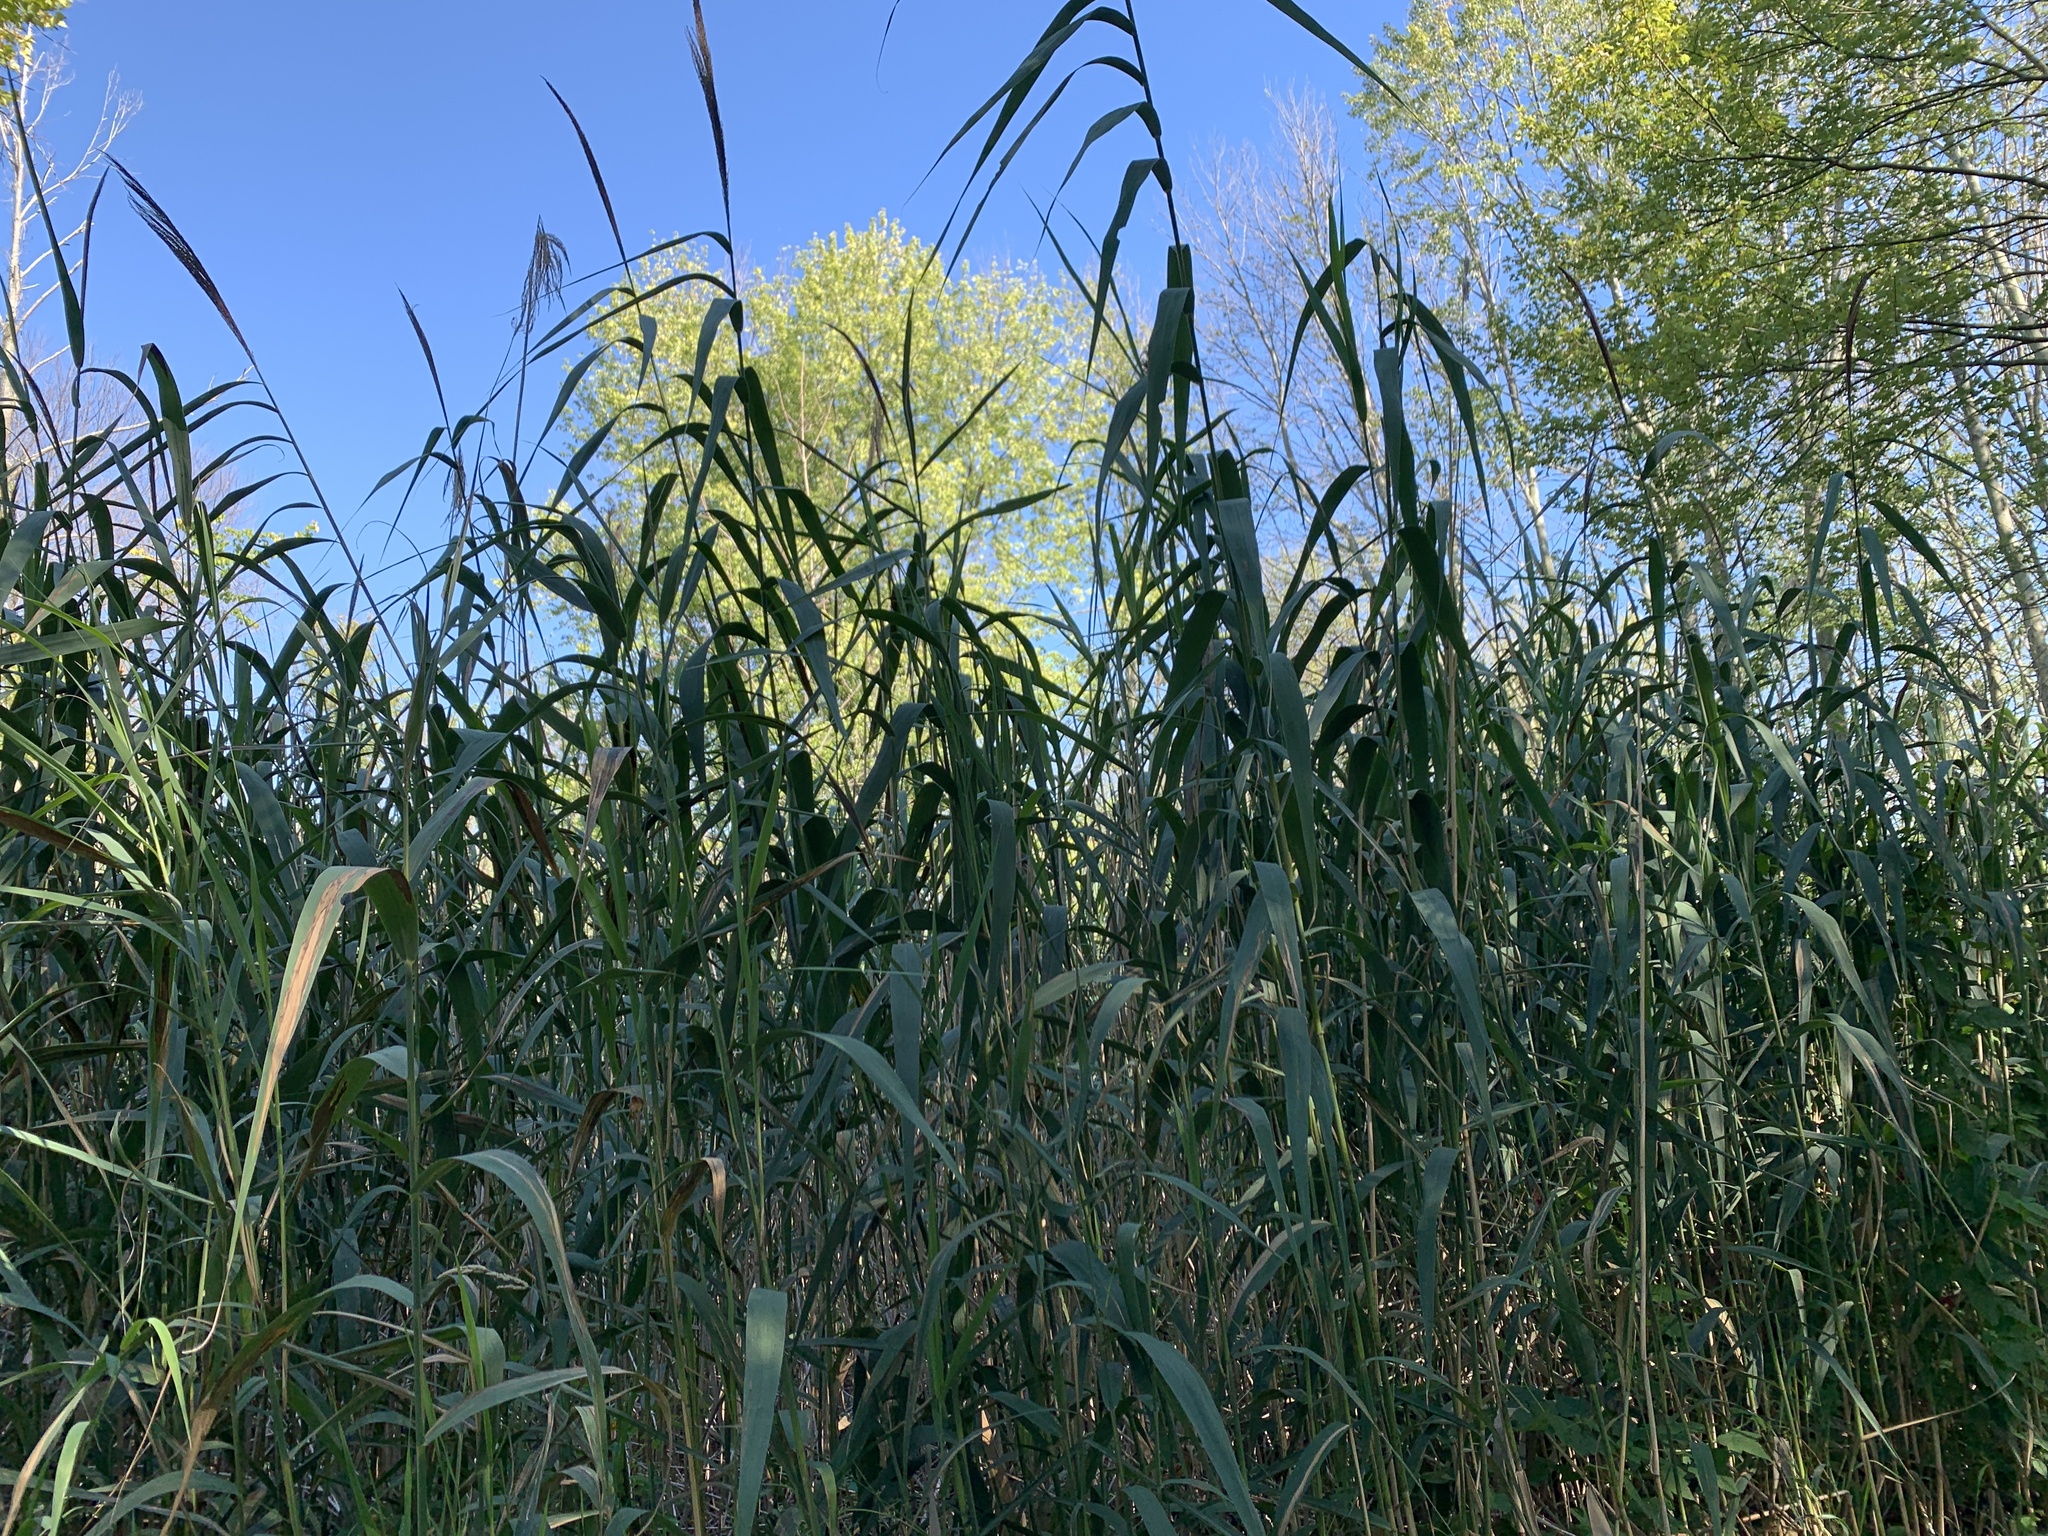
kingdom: Plantae
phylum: Tracheophyta
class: Liliopsida
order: Poales
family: Poaceae
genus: Phragmites
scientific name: Phragmites australis
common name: Common reed
